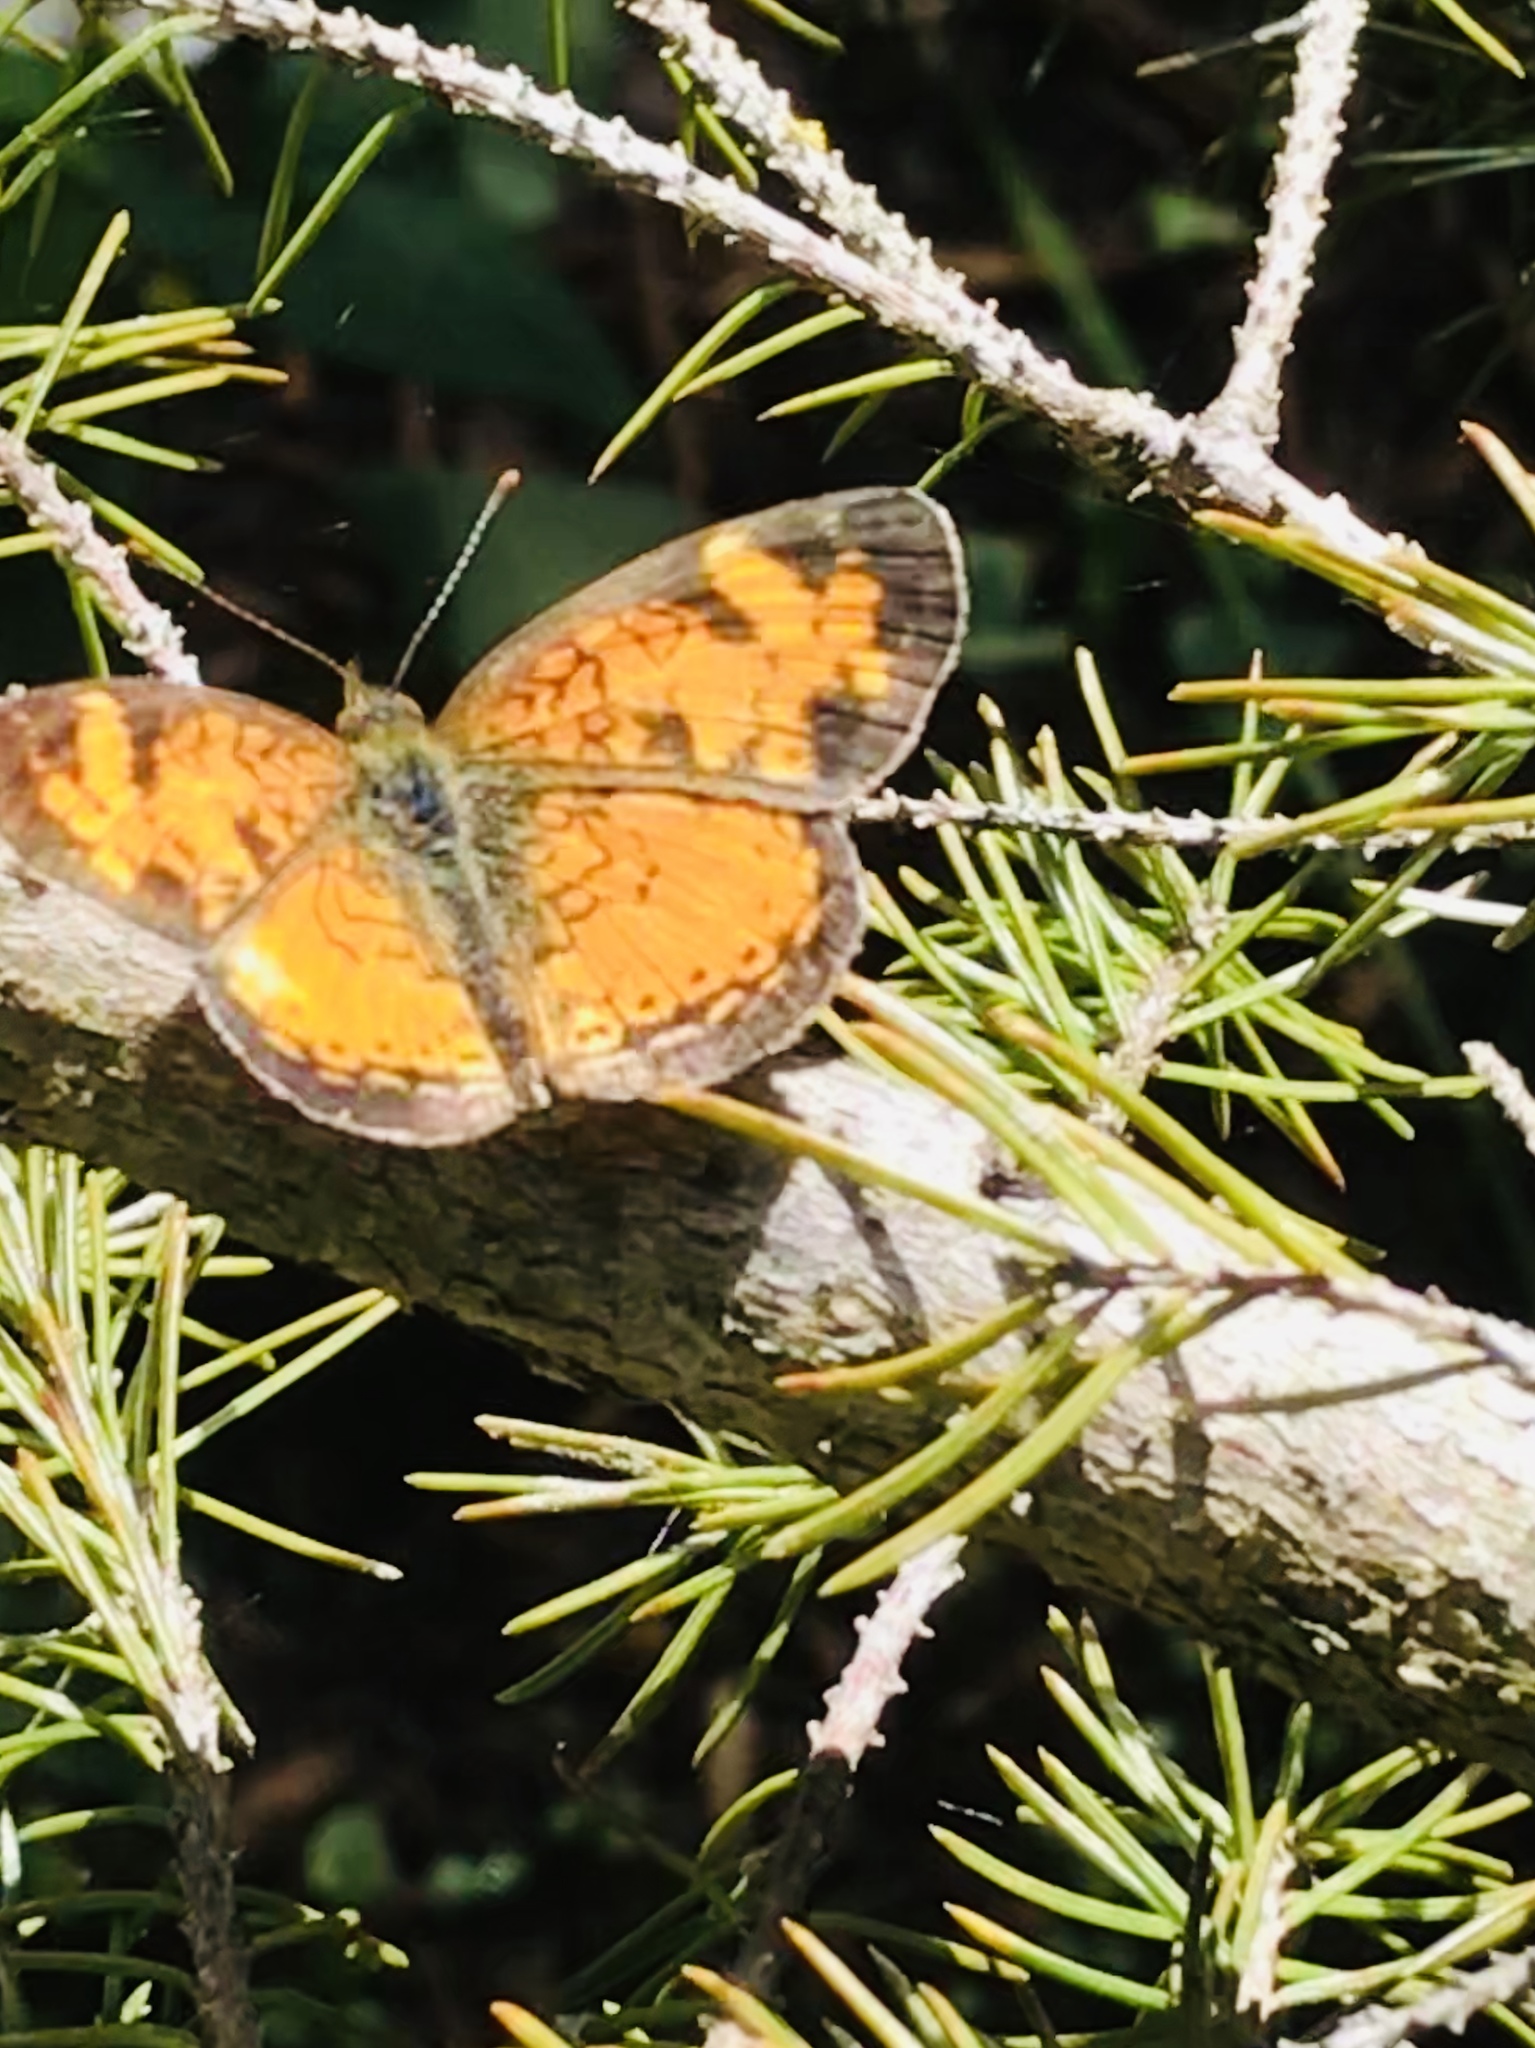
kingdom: Animalia
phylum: Arthropoda
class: Insecta
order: Lepidoptera
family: Nymphalidae
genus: Phyciodes
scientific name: Phyciodes tharos
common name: Pearl crescent
